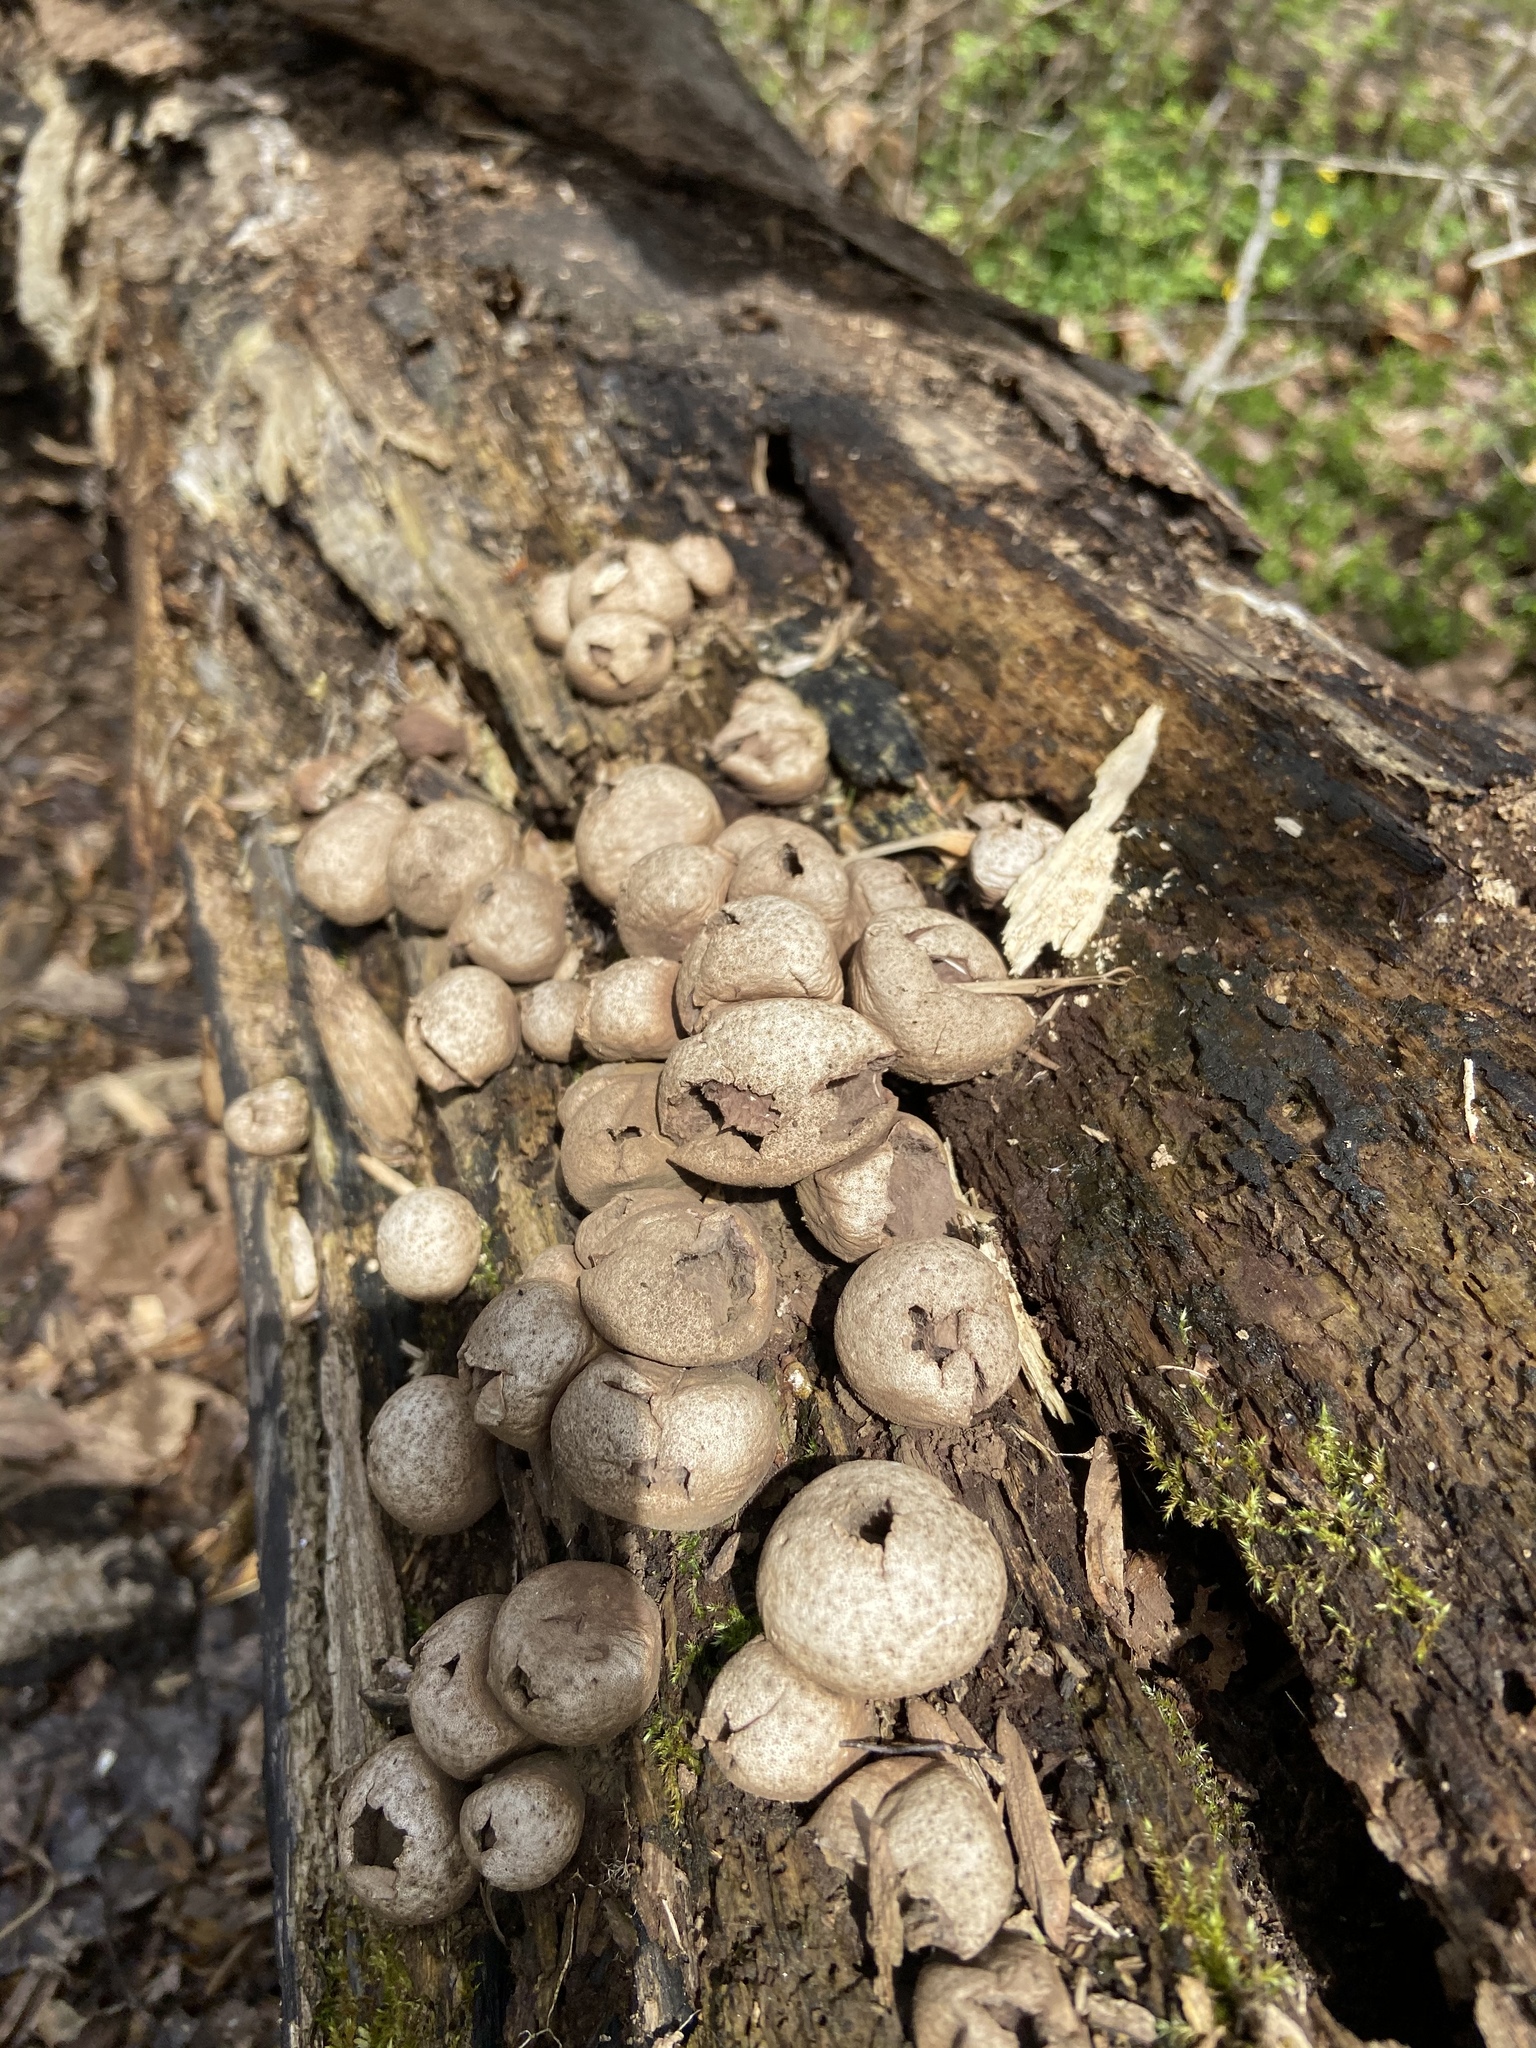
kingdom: Fungi
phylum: Basidiomycota
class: Agaricomycetes
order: Agaricales
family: Lycoperdaceae
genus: Apioperdon
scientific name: Apioperdon pyriforme
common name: Pear-shaped puffball
